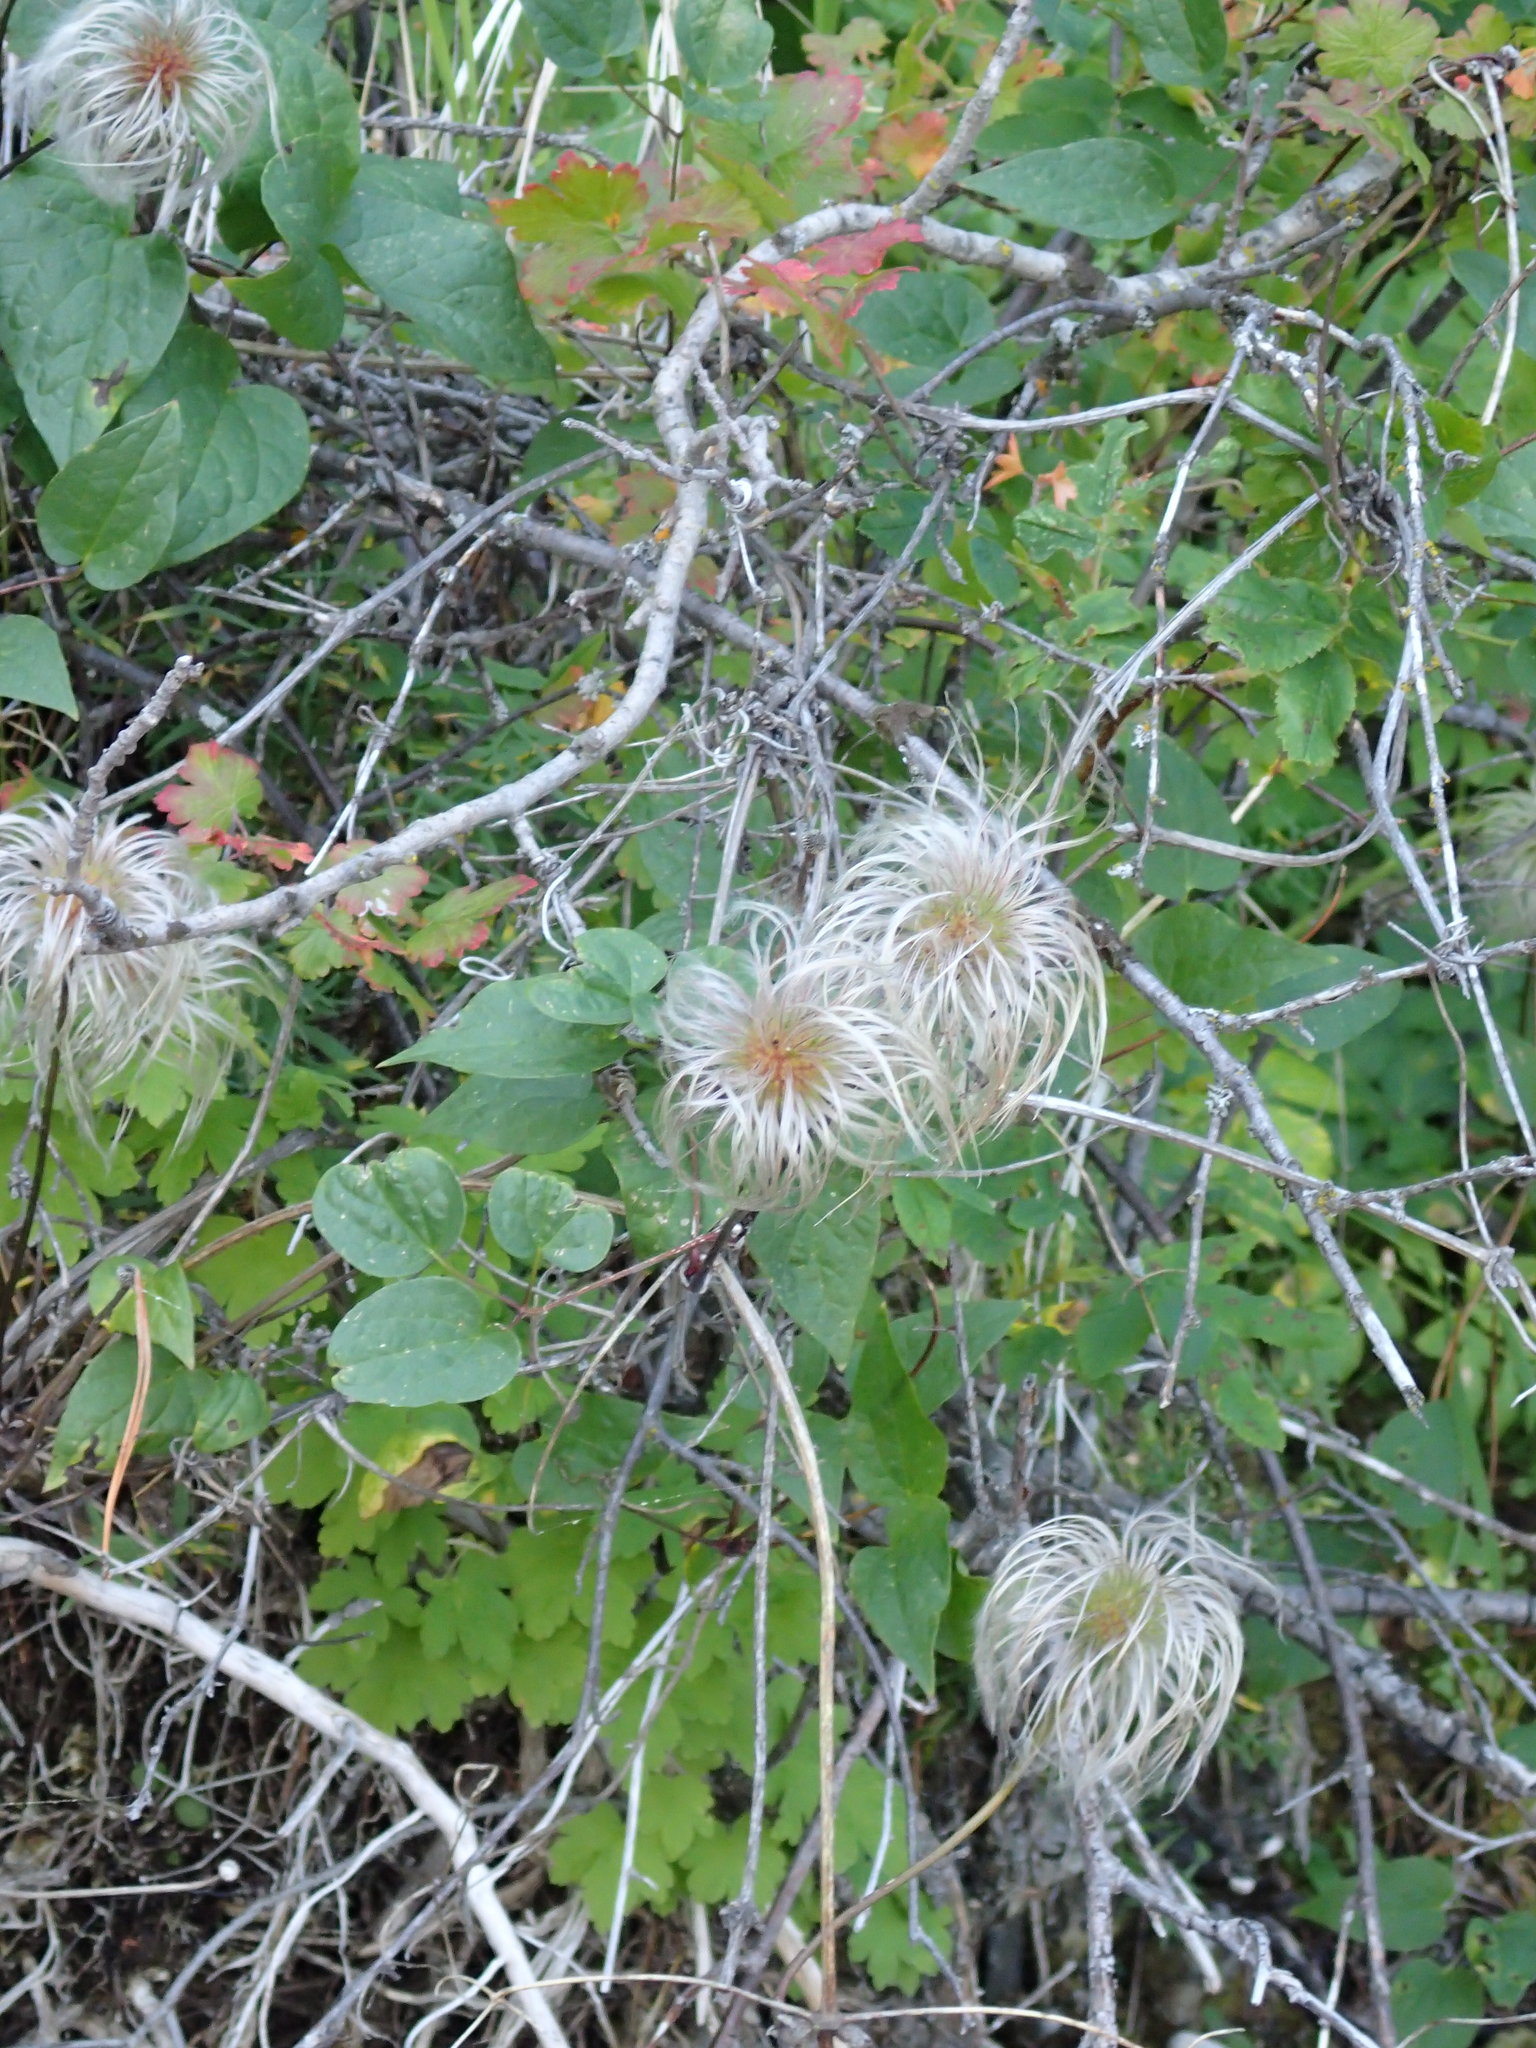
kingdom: Plantae
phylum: Tracheophyta
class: Magnoliopsida
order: Ranunculales
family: Ranunculaceae
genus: Clematis
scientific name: Clematis occidentalis
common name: Purple clematis
